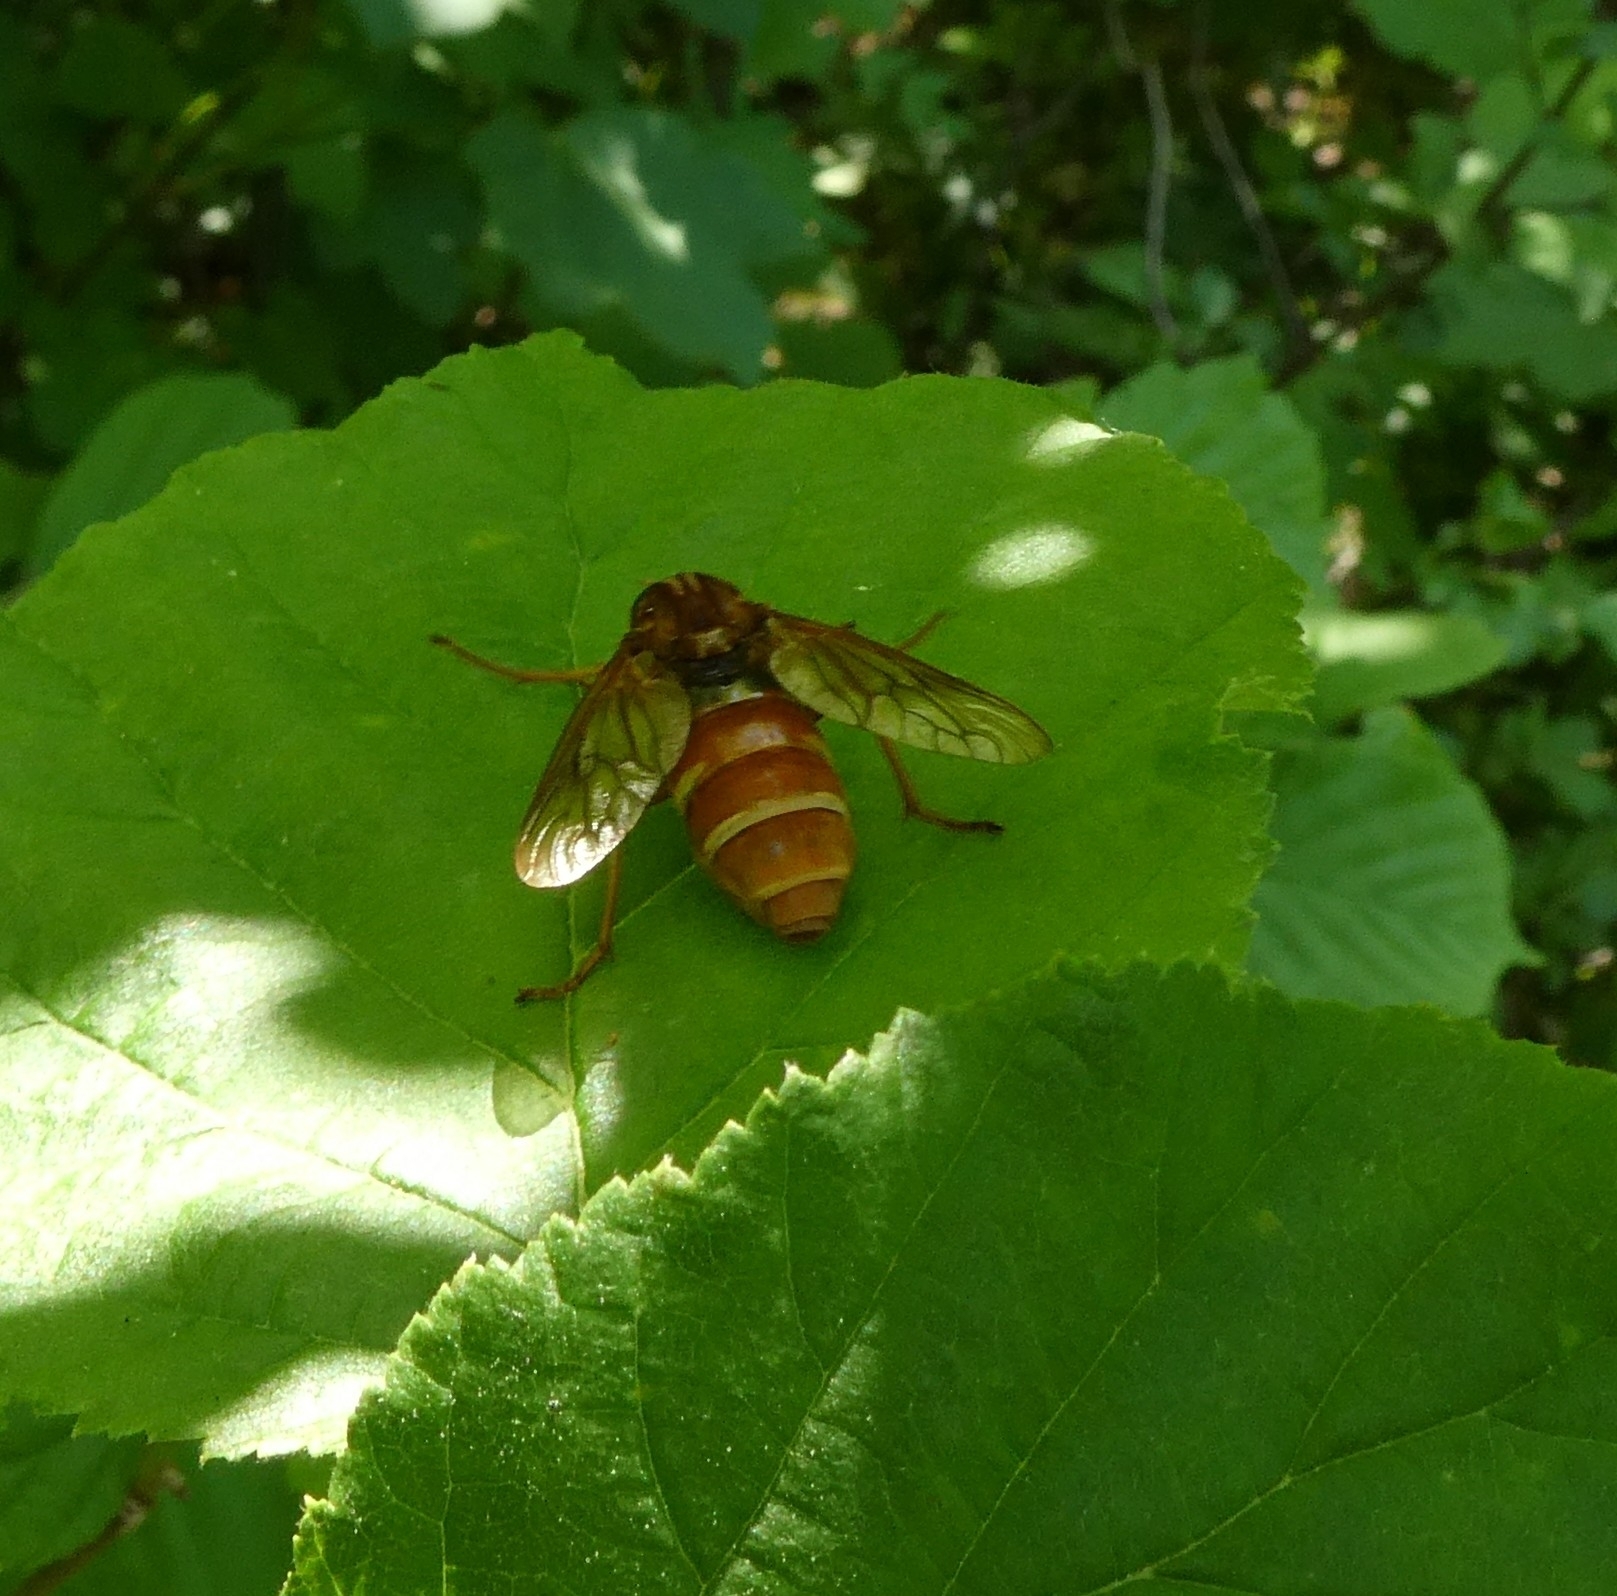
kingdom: Animalia
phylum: Arthropoda
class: Insecta
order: Diptera
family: Xylophagidae
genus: Coenomyia
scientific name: Coenomyia ferruginea
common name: Stink fly
